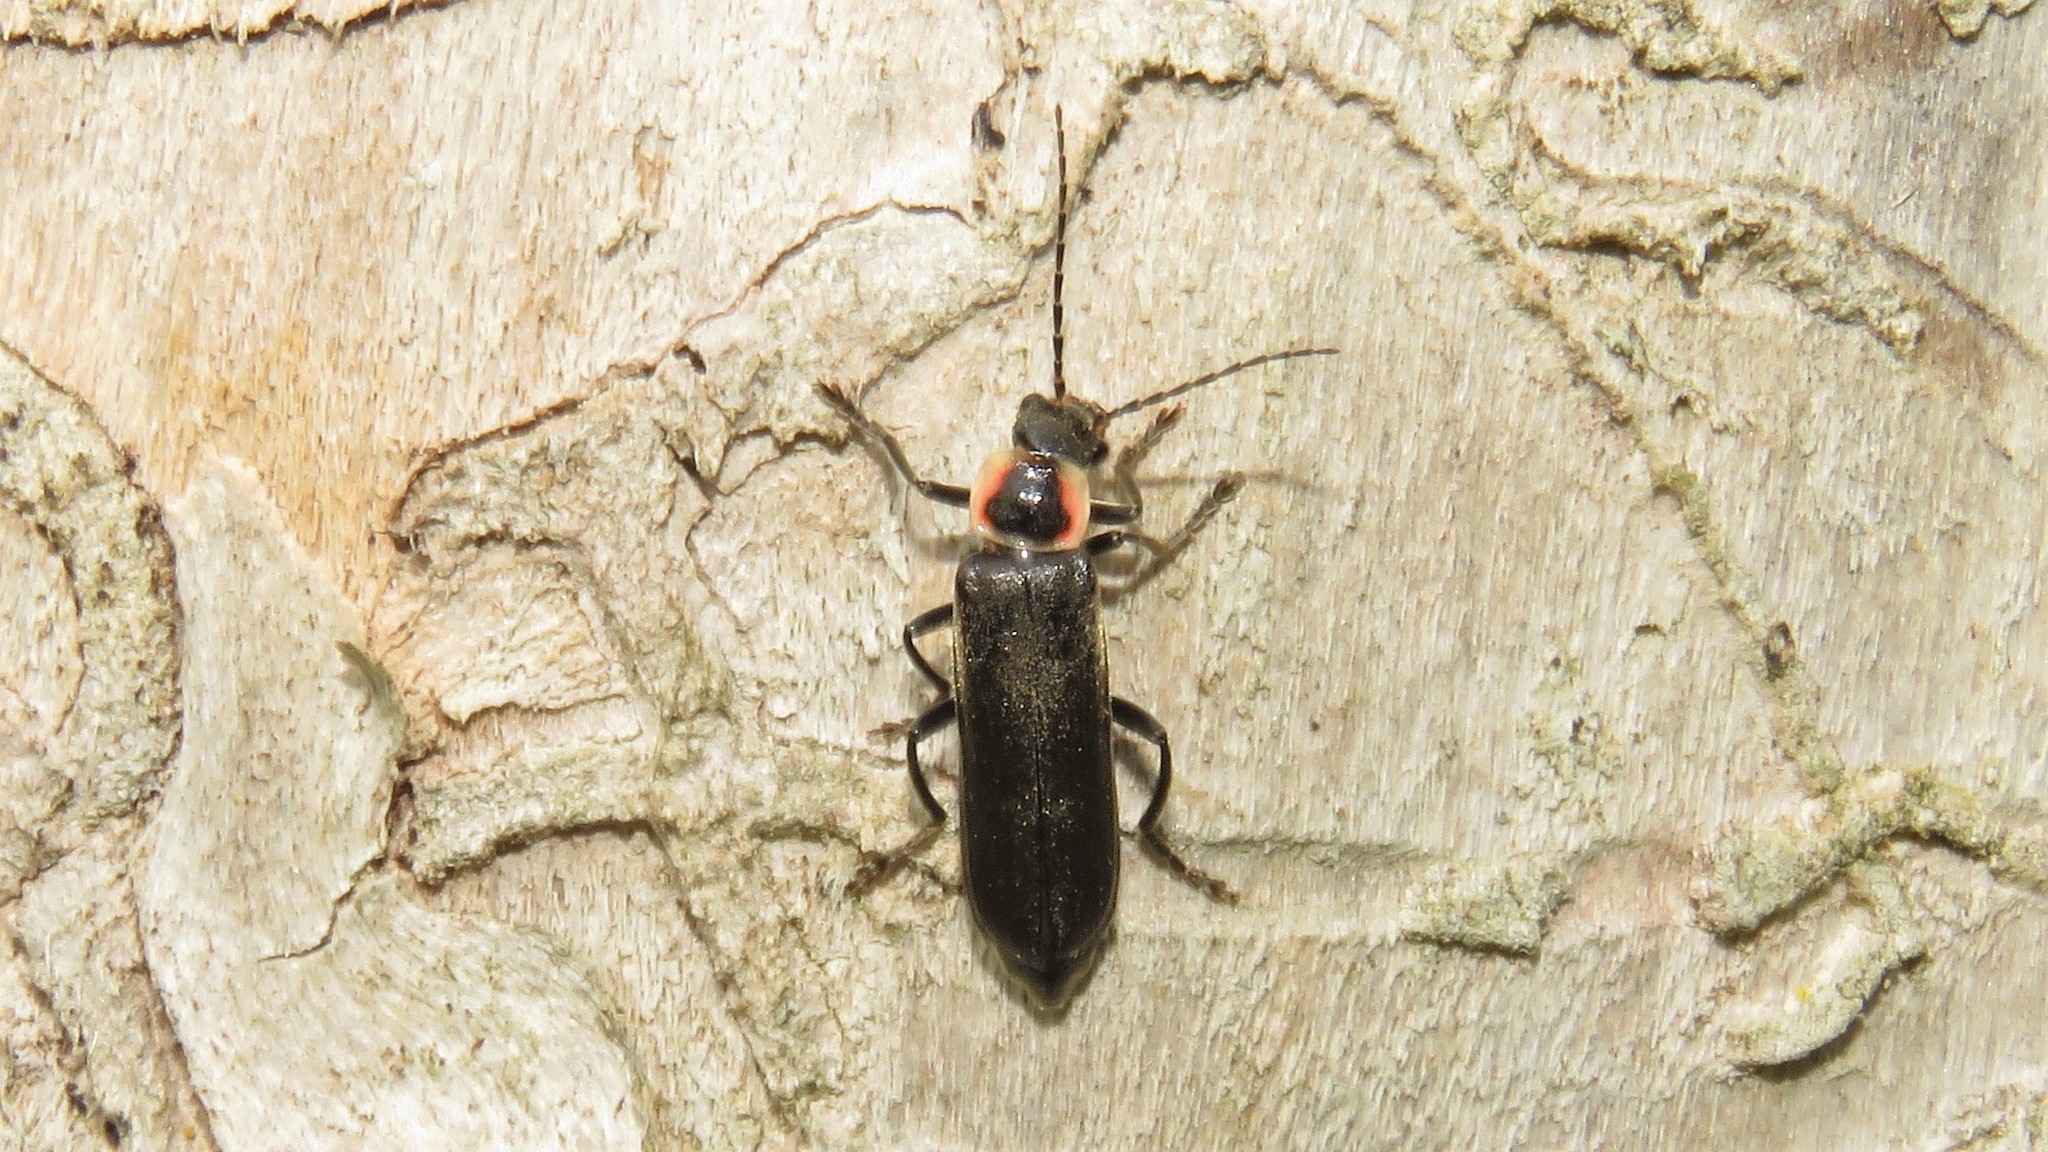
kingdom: Animalia
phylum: Arthropoda
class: Insecta
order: Coleoptera
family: Cantharidae
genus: Rhaxonycha
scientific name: Rhaxonycha bilobata
